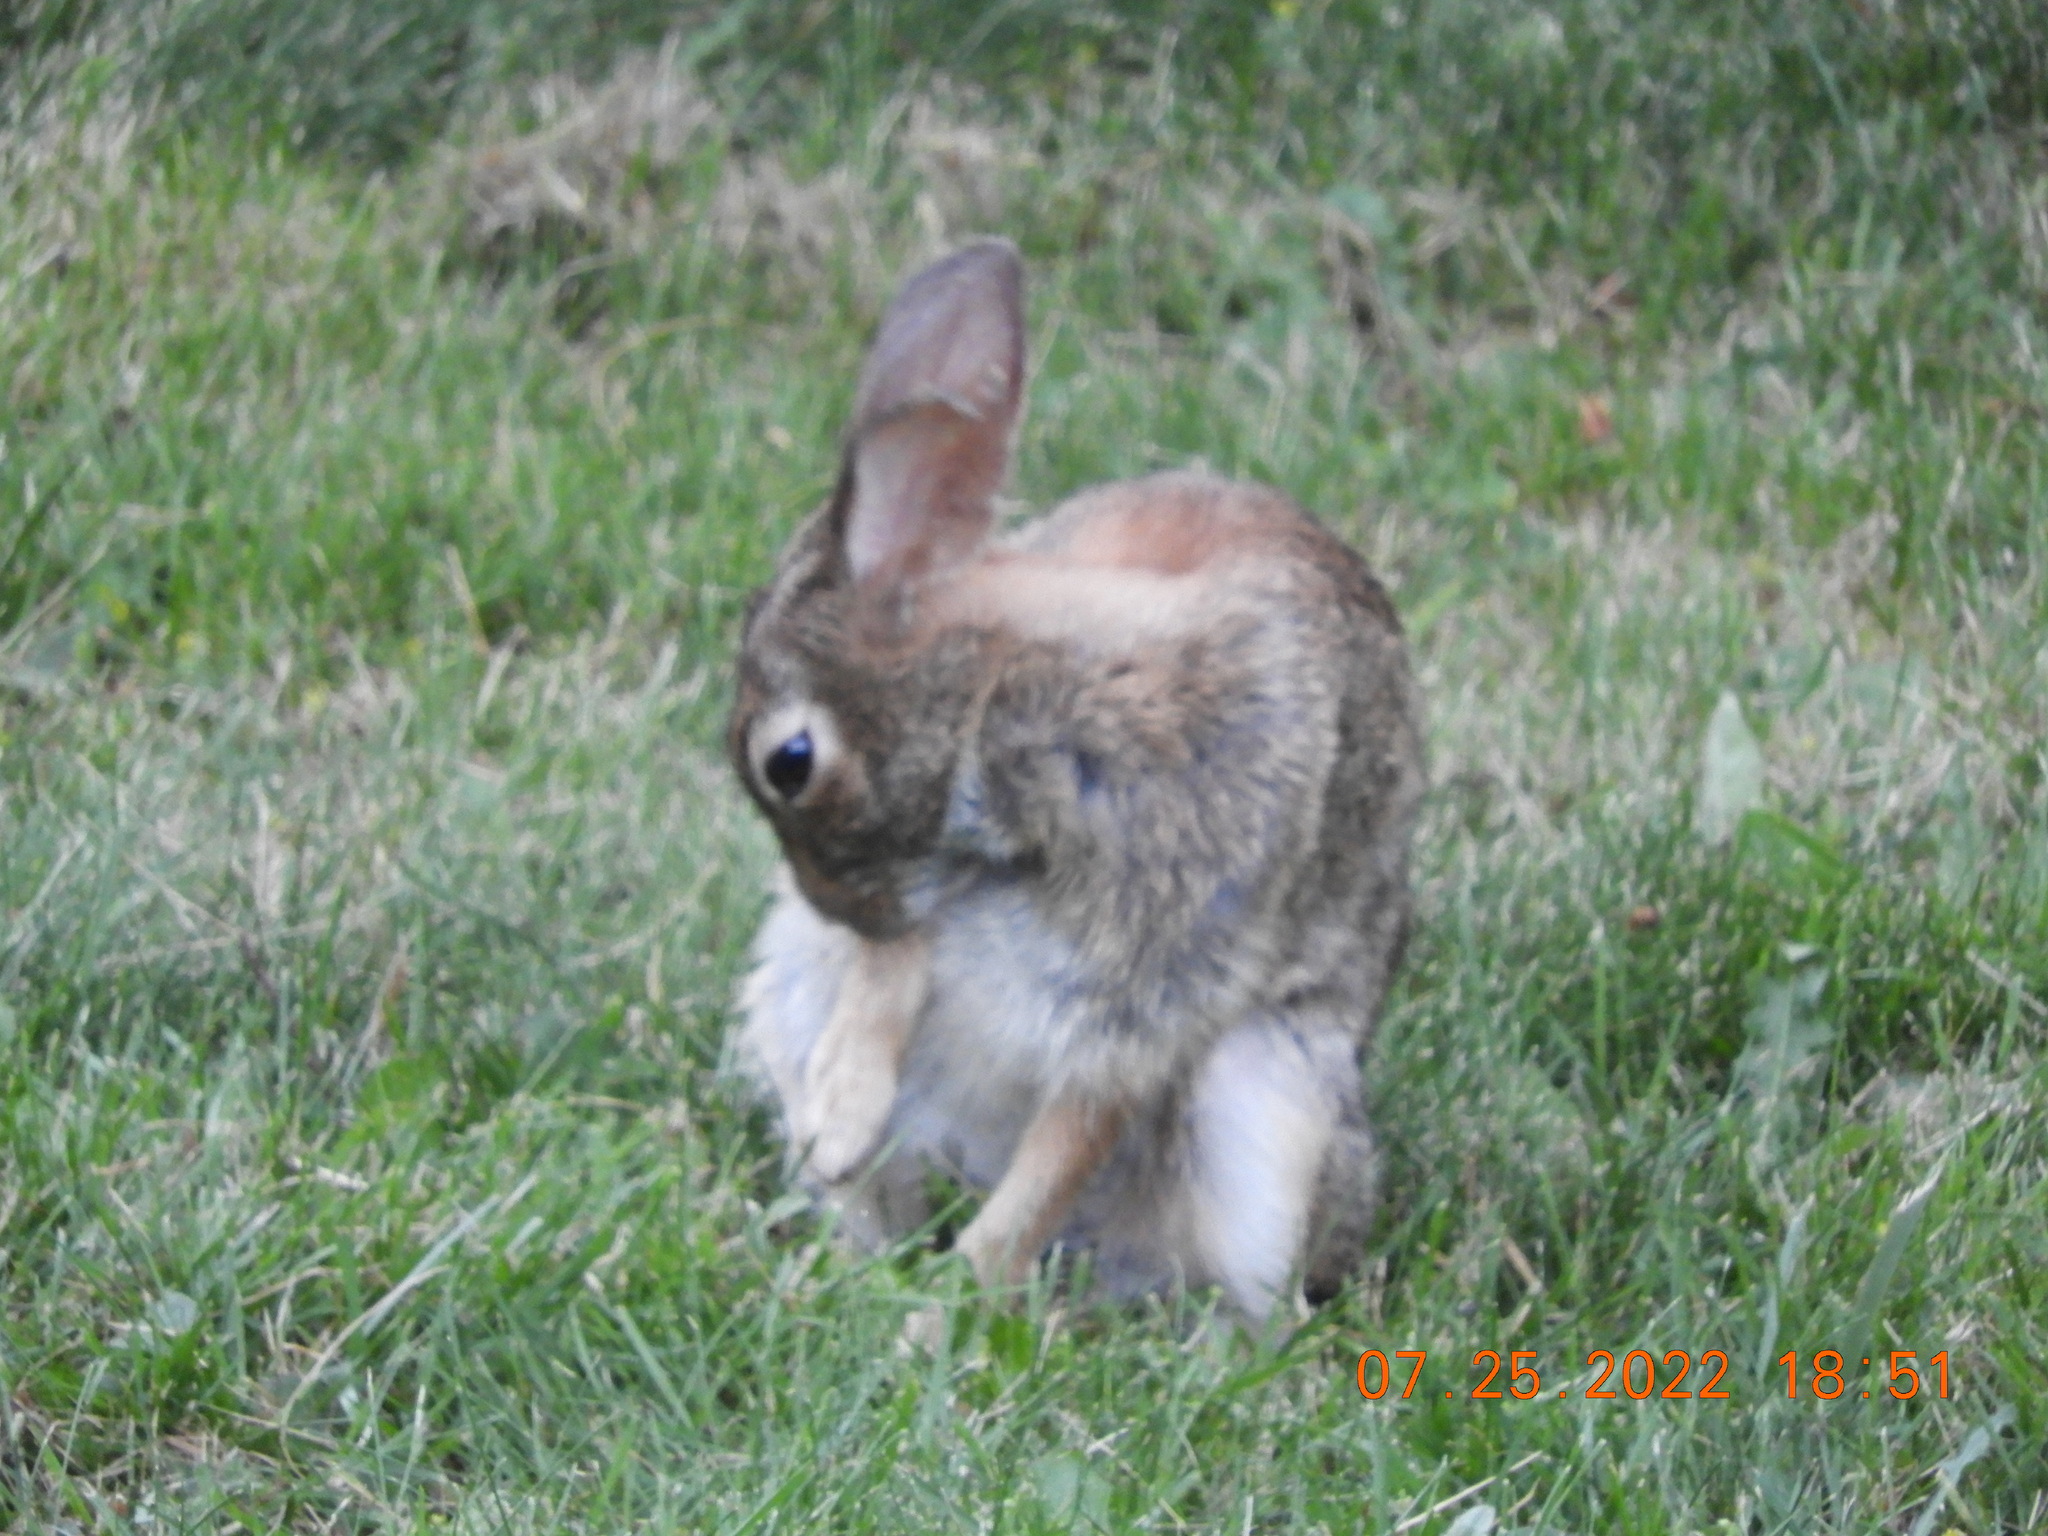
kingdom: Animalia
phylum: Chordata
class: Mammalia
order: Lagomorpha
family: Leporidae
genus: Sylvilagus
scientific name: Sylvilagus floridanus
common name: Eastern cottontail
